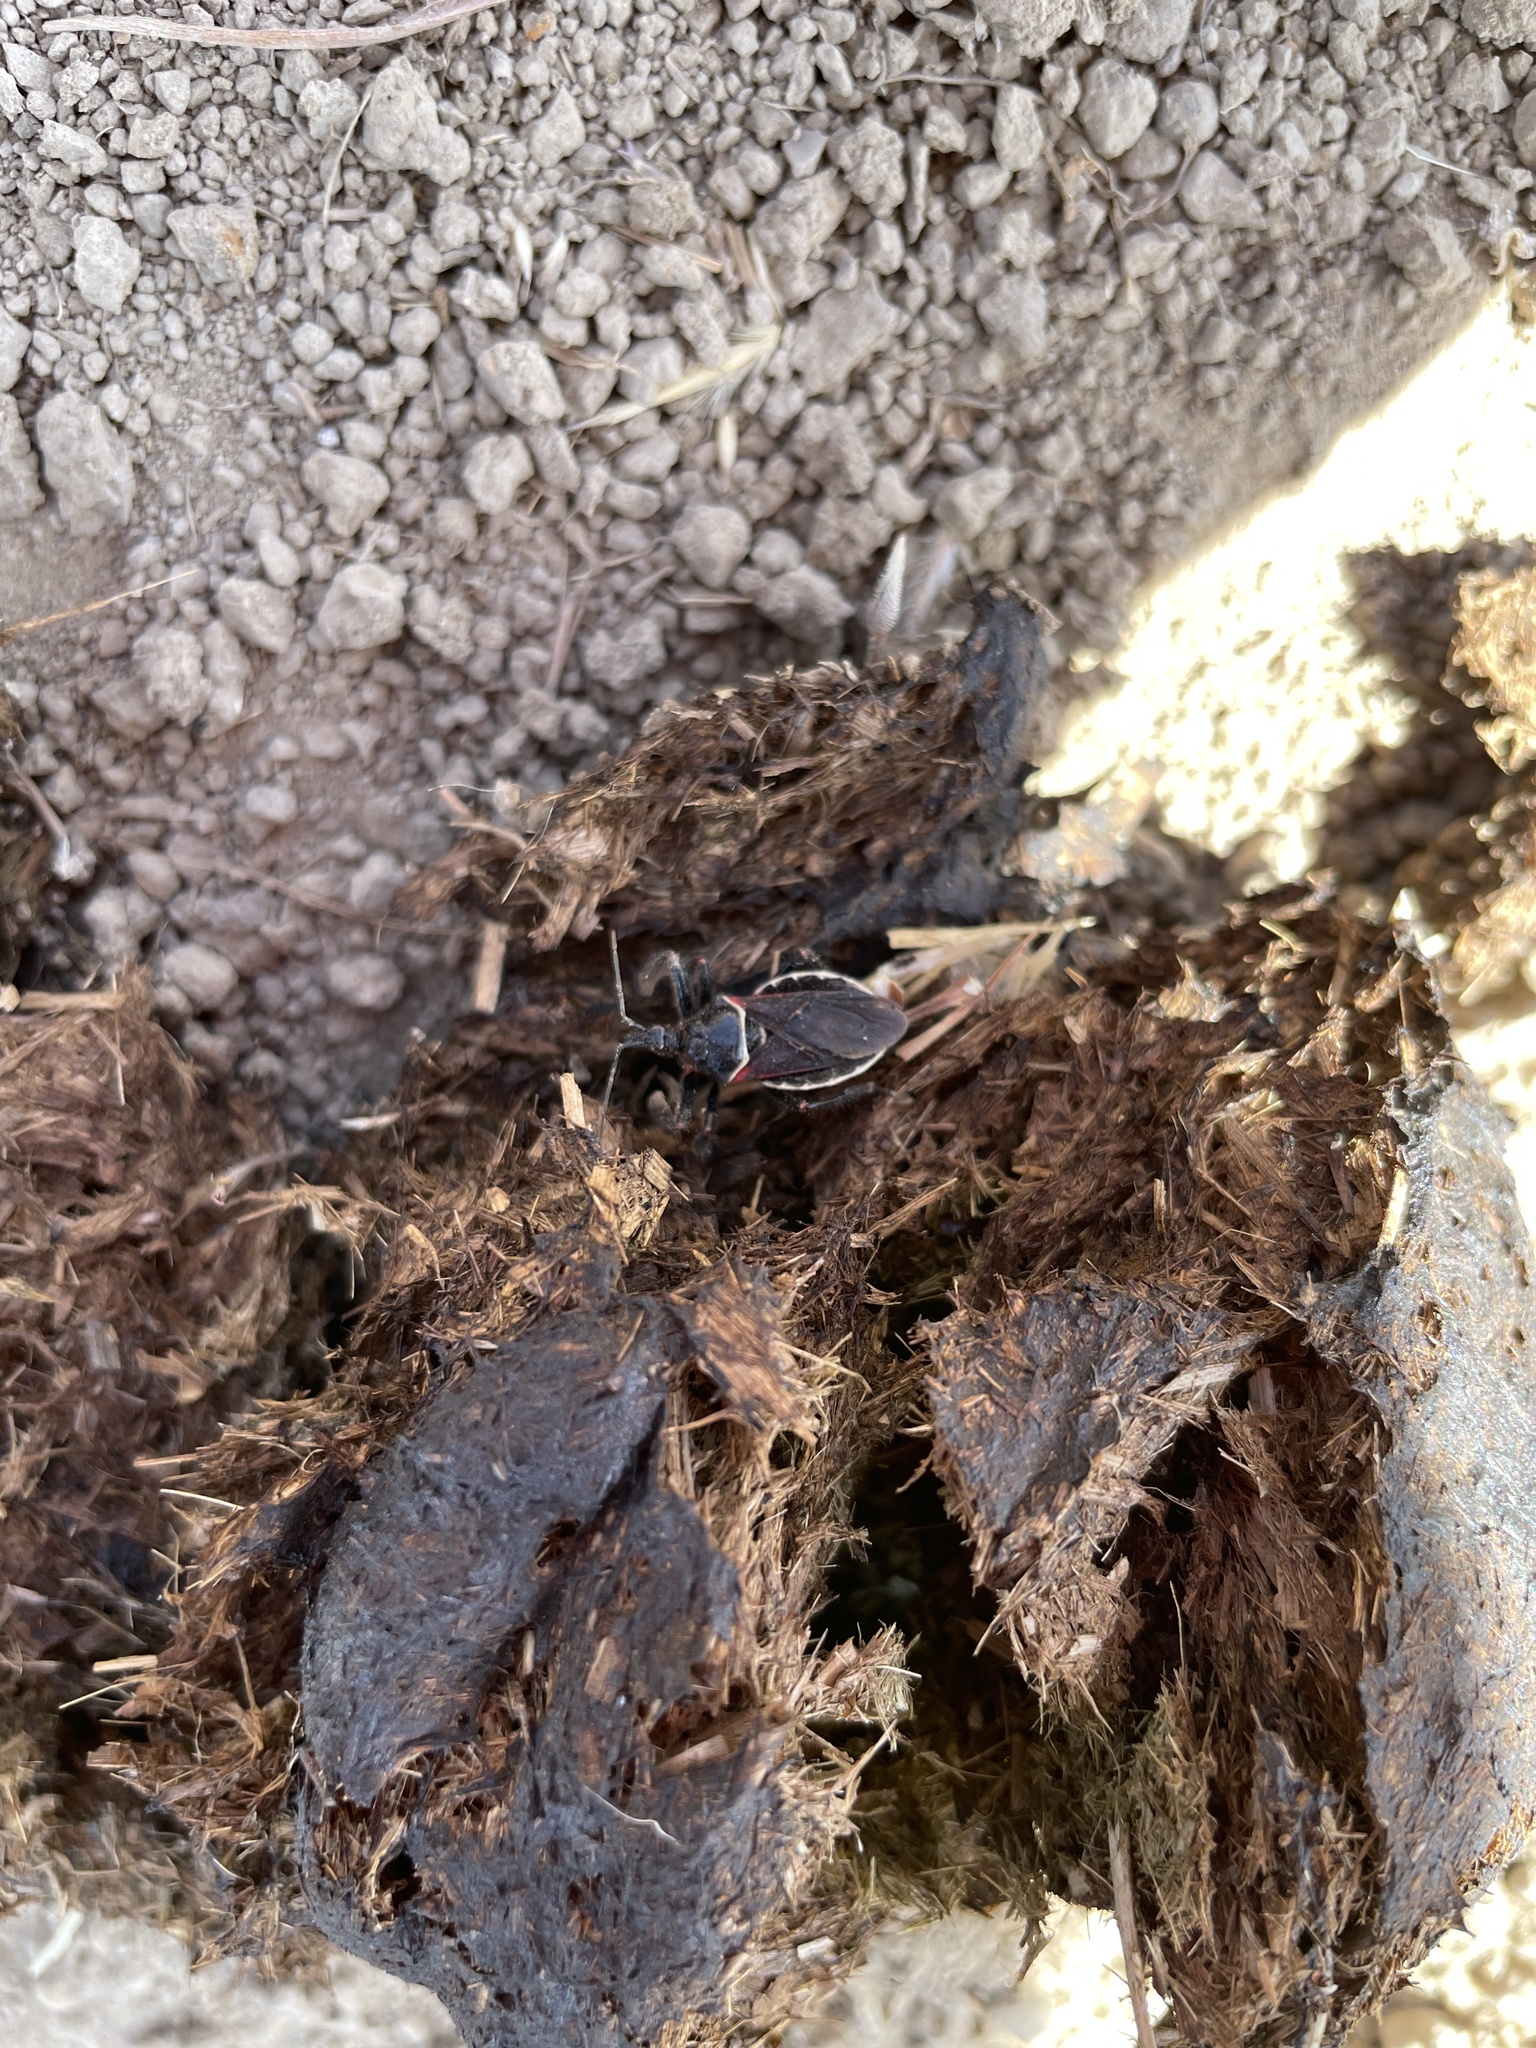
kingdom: Animalia
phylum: Arthropoda
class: Insecta
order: Hemiptera
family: Reduviidae
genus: Apiomerus
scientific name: Apiomerus californicus
